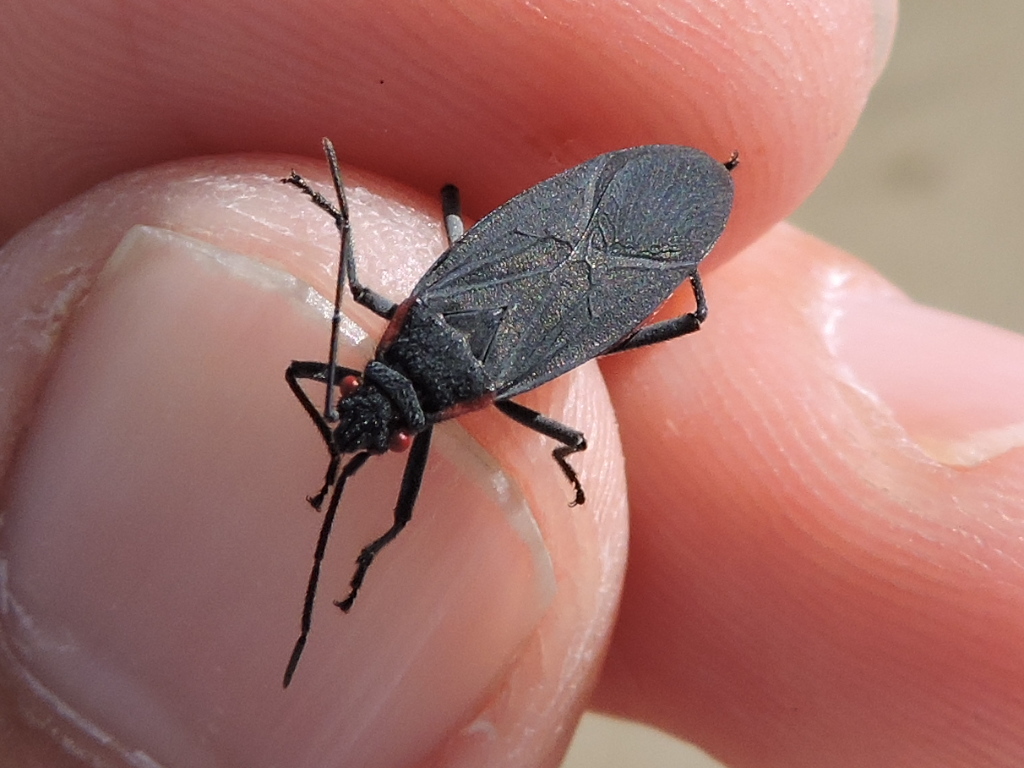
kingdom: Animalia
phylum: Arthropoda
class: Insecta
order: Hemiptera
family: Rhopalidae
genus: Jadera
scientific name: Jadera haematoloma
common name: Red-shouldered bug
